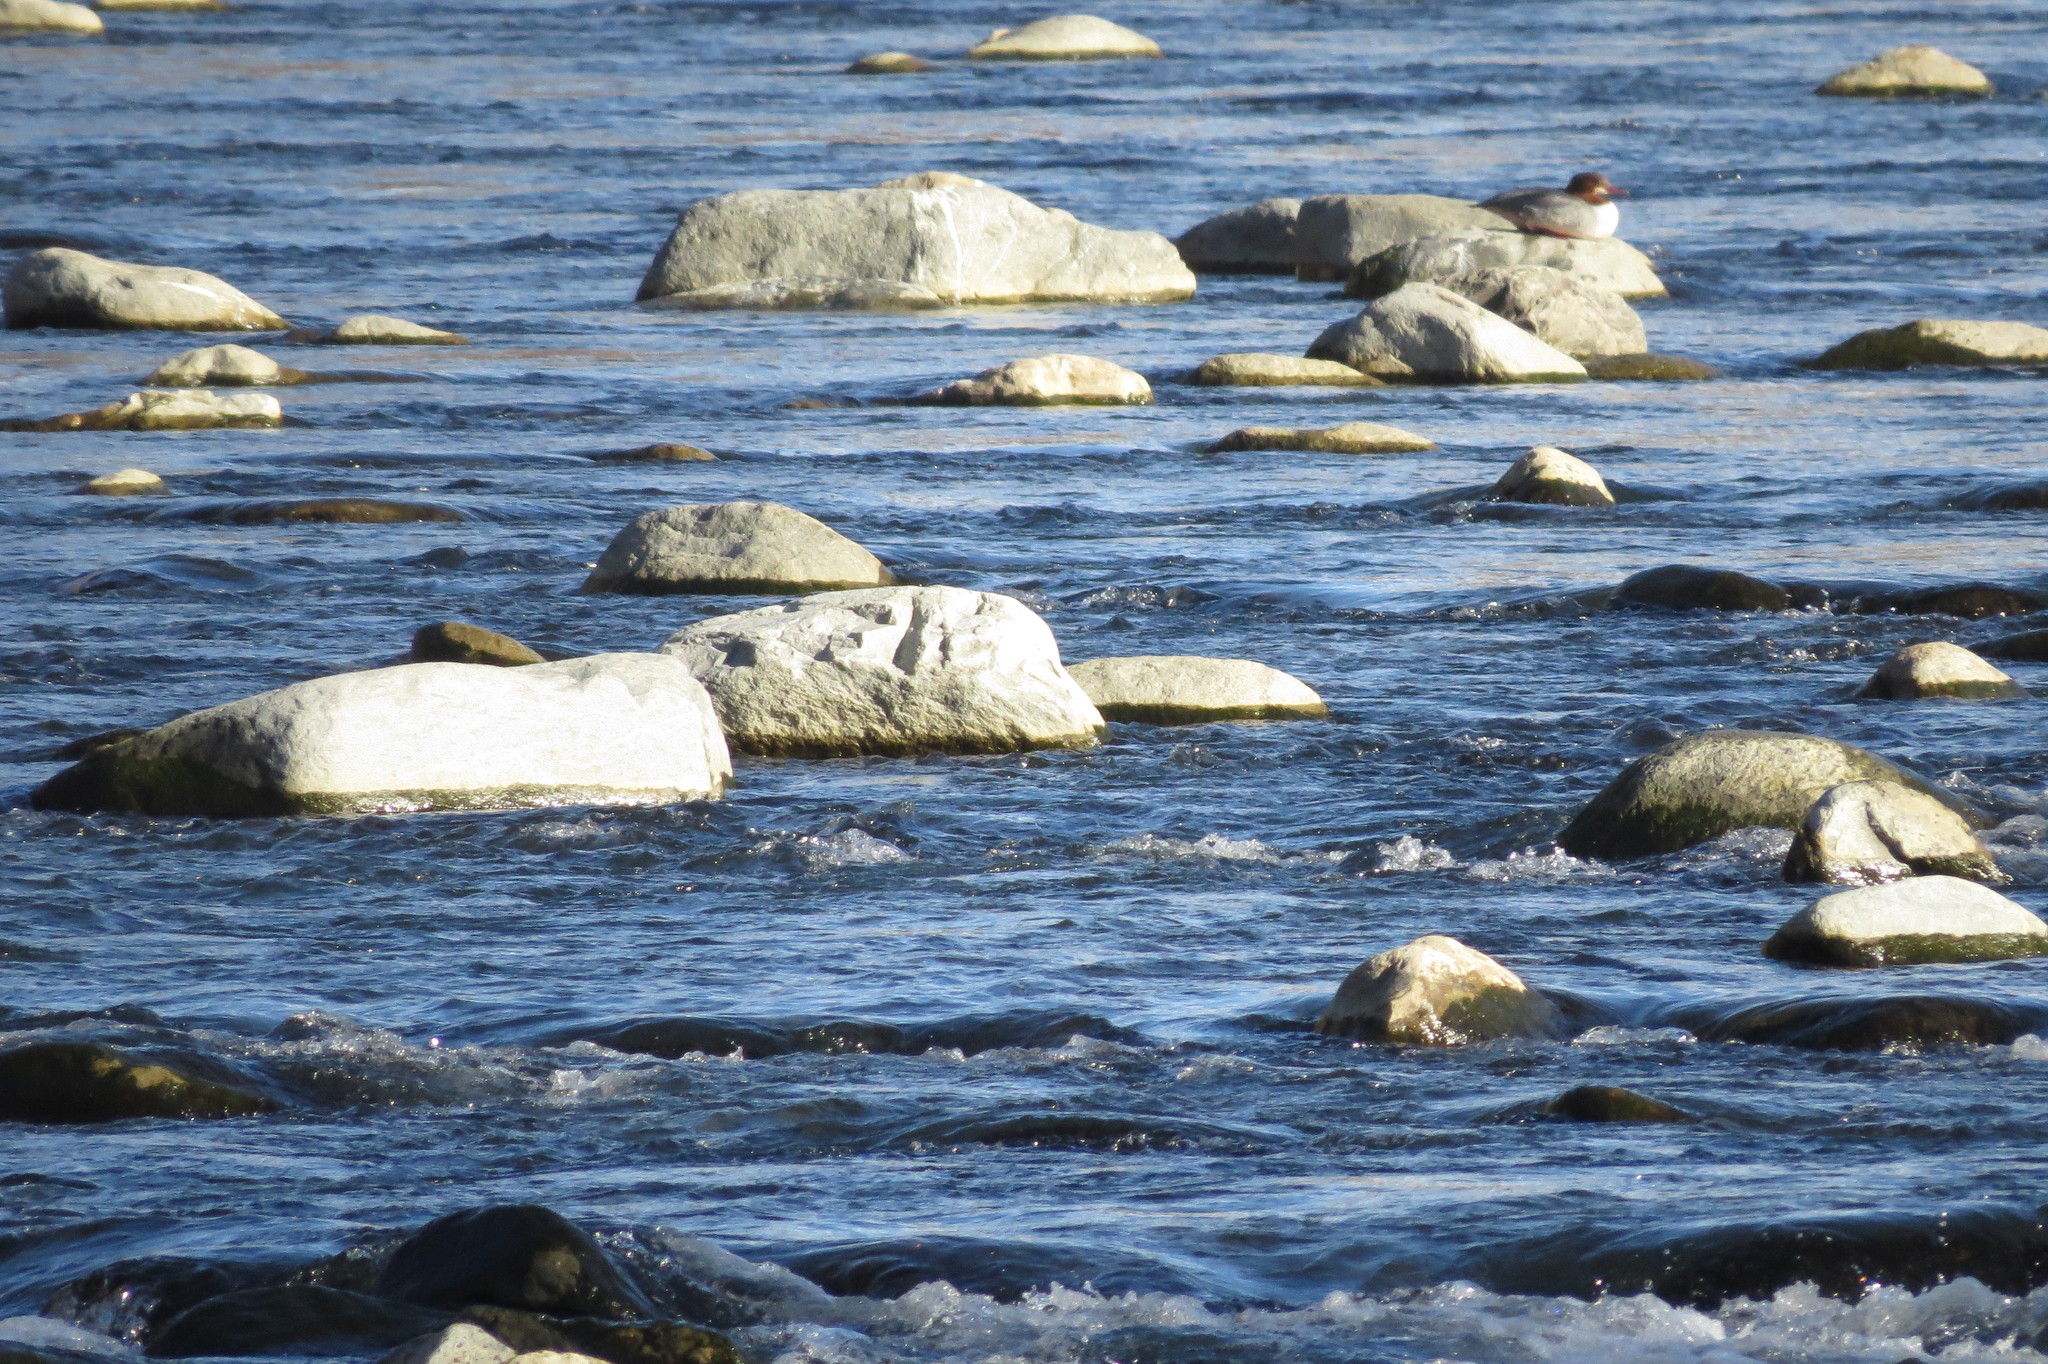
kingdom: Animalia
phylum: Chordata
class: Aves
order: Anseriformes
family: Anatidae
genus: Mergus
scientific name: Mergus merganser
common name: Common merganser
